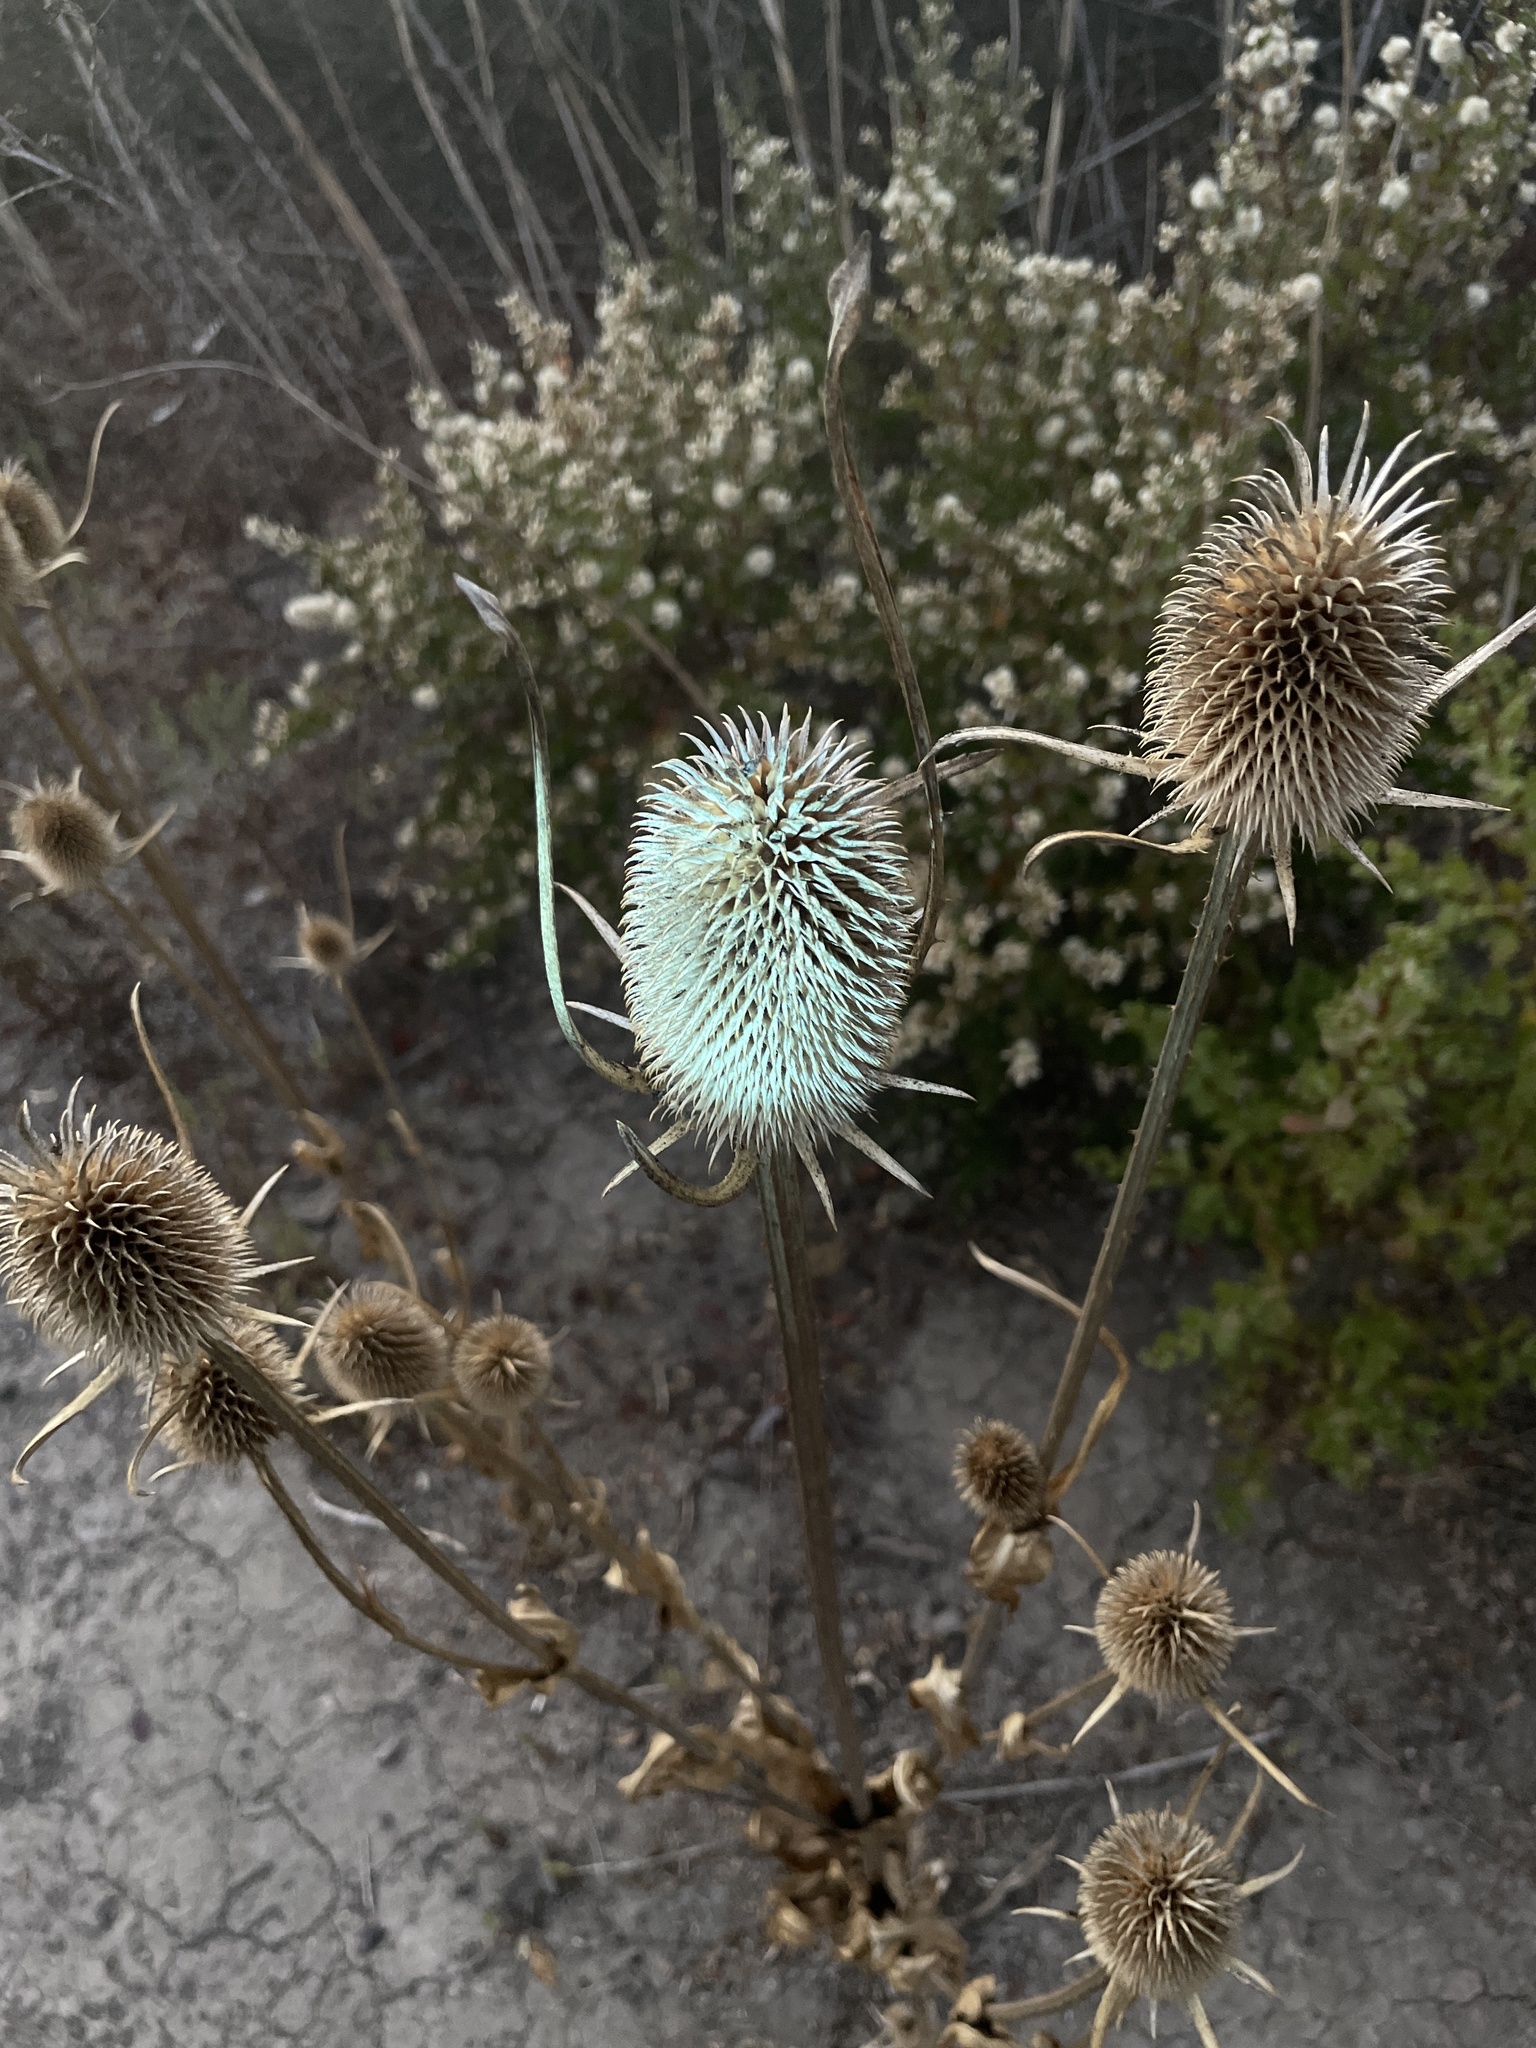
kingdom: Plantae
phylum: Tracheophyta
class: Magnoliopsida
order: Dipsacales
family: Caprifoliaceae
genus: Dipsacus
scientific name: Dipsacus sativus
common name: Fuller's teasel
